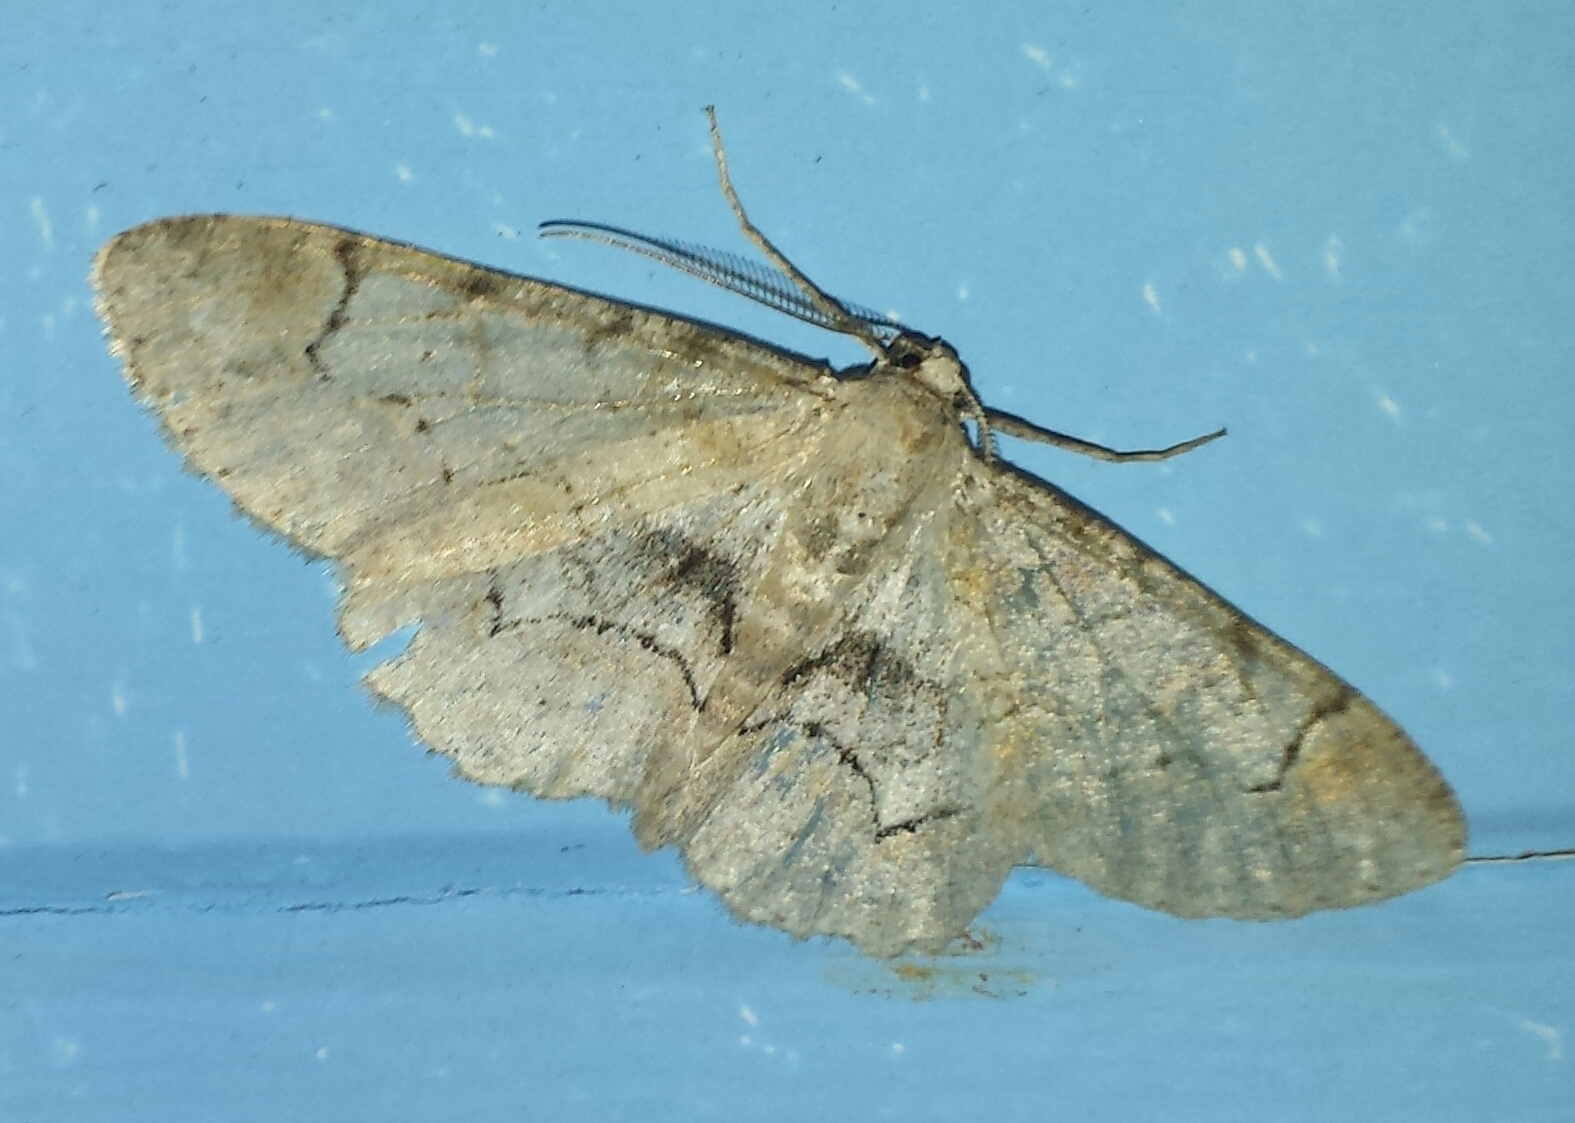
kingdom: Animalia
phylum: Arthropoda
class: Insecta
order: Lepidoptera
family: Geometridae
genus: Iridopsis
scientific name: Iridopsis larvaria
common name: Bent-line gray
